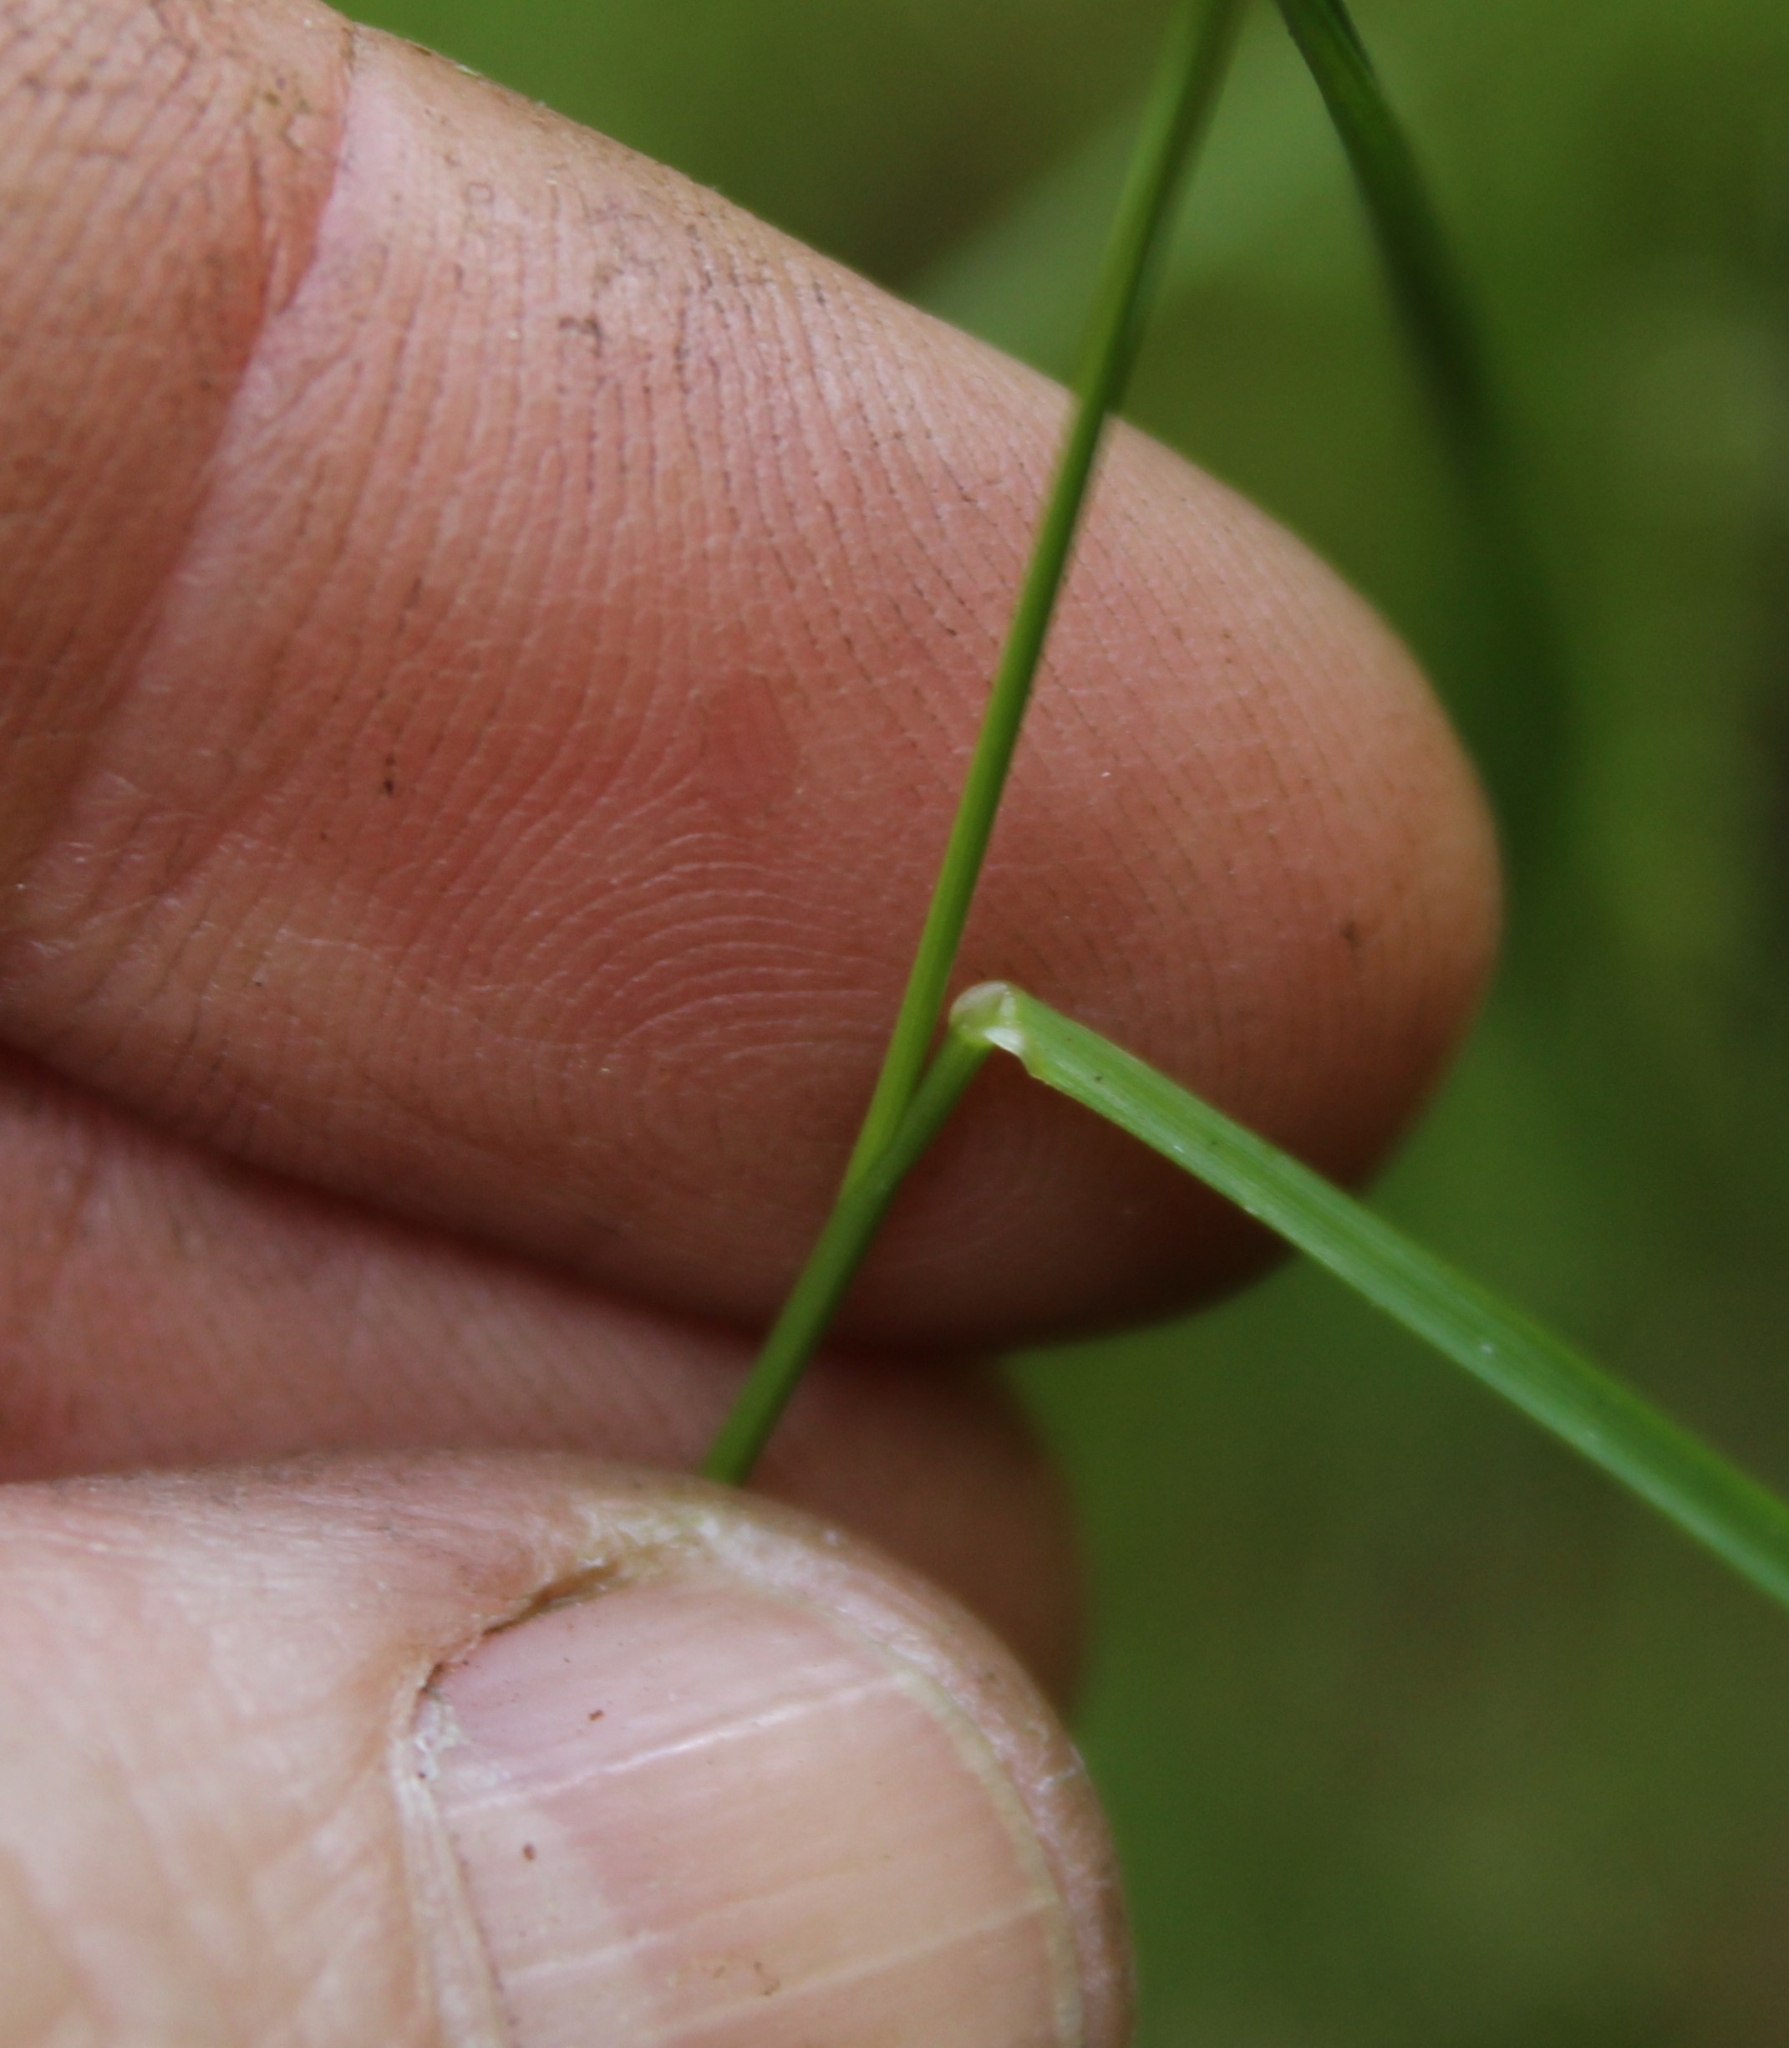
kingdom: Plantae
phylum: Tracheophyta
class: Liliopsida
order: Poales
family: Poaceae
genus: Agrostis
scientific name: Agrostis capillaris
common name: Colonial bentgrass
